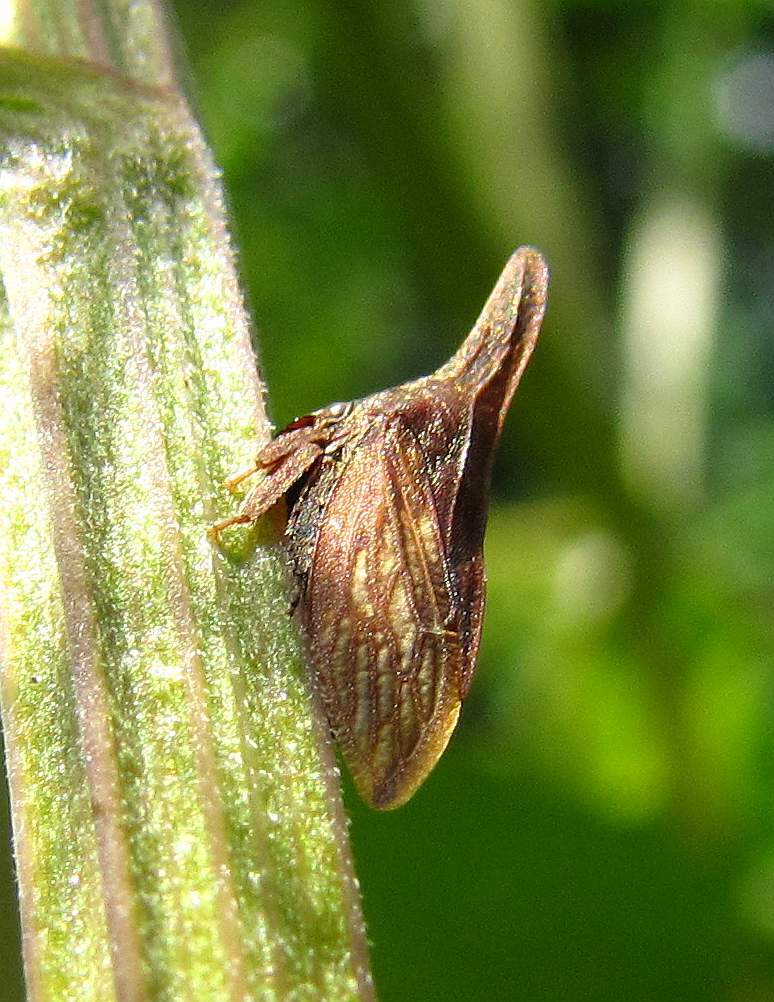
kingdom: Animalia
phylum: Arthropoda
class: Insecta
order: Hemiptera
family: Membracidae
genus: Enchenopa
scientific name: Enchenopa latipes
